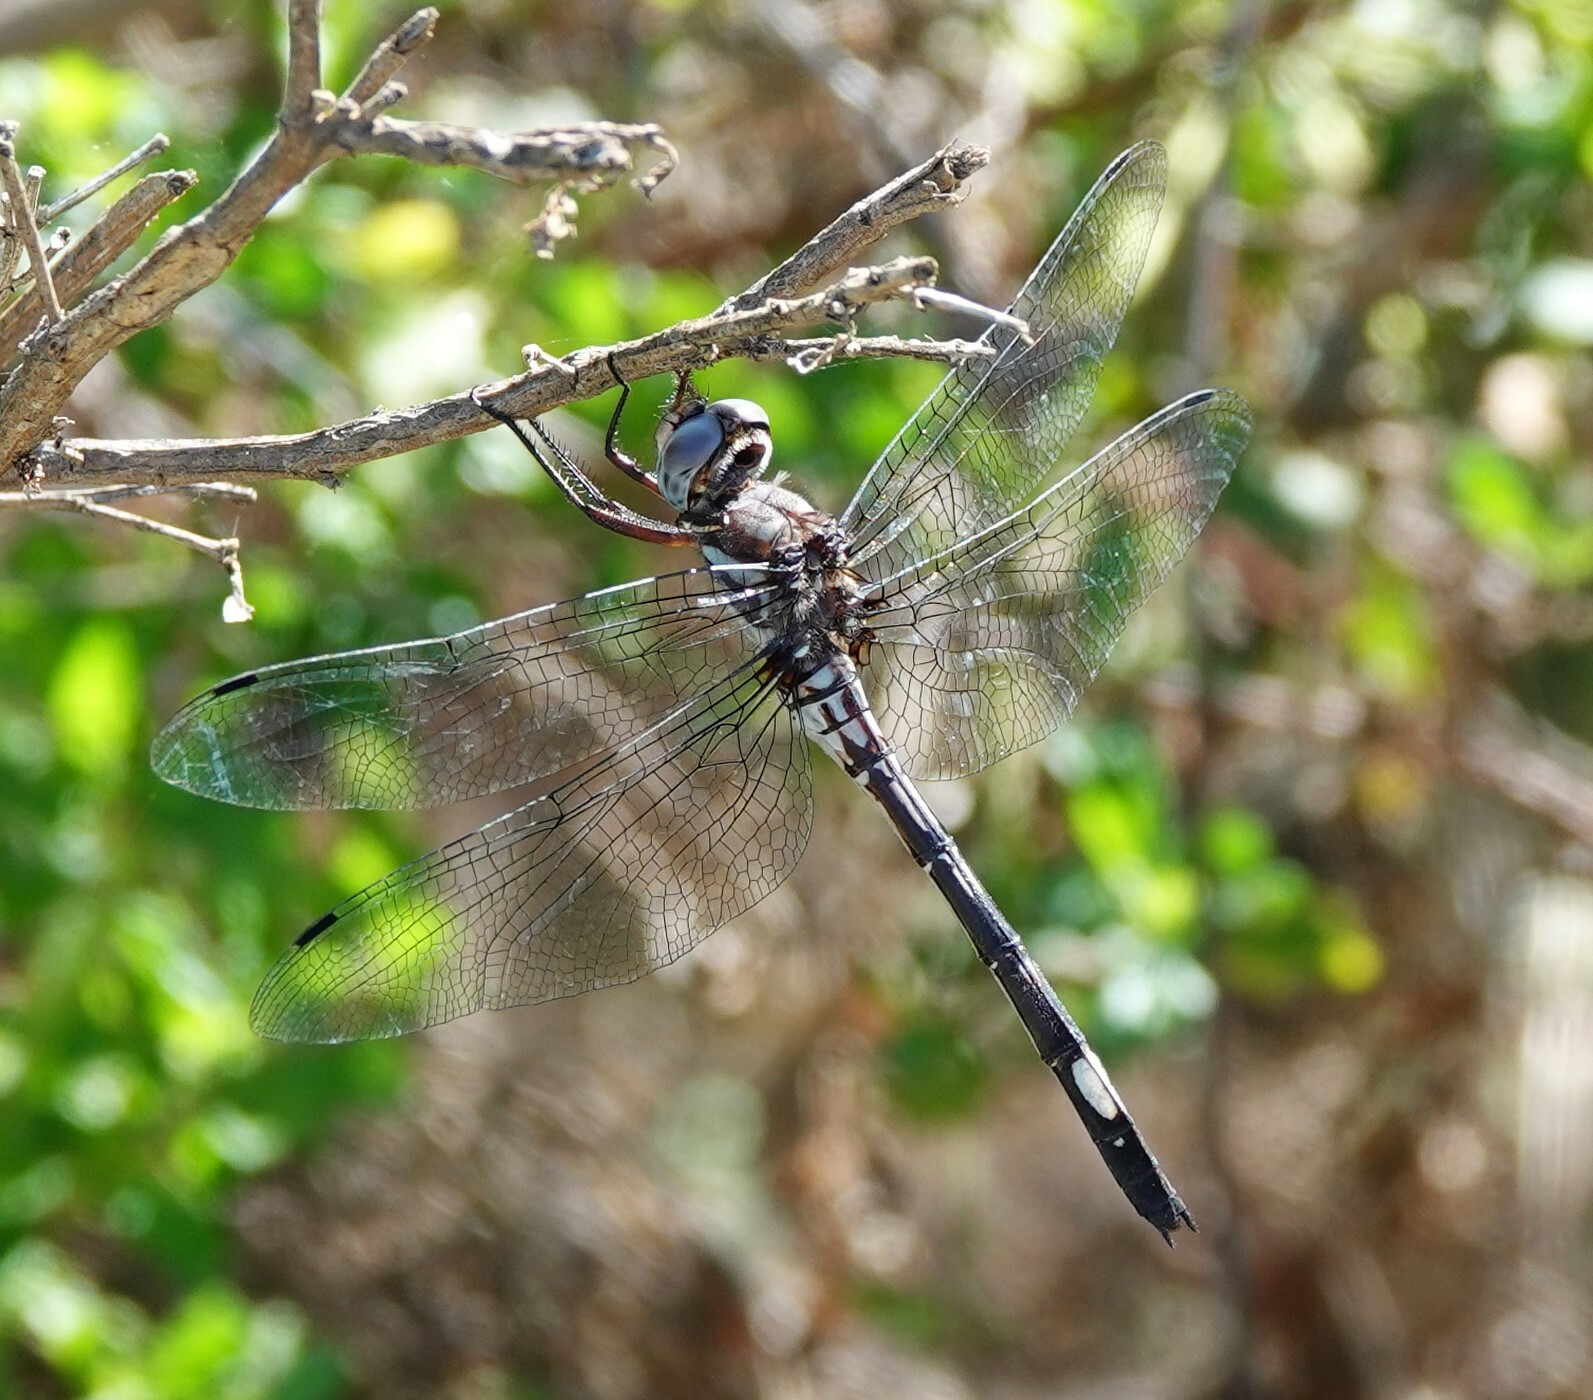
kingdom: Animalia
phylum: Arthropoda
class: Insecta
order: Odonata
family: Libellulidae
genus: Brechmorhoga
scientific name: Brechmorhoga mendax
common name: Pale-faced clubskimmer
